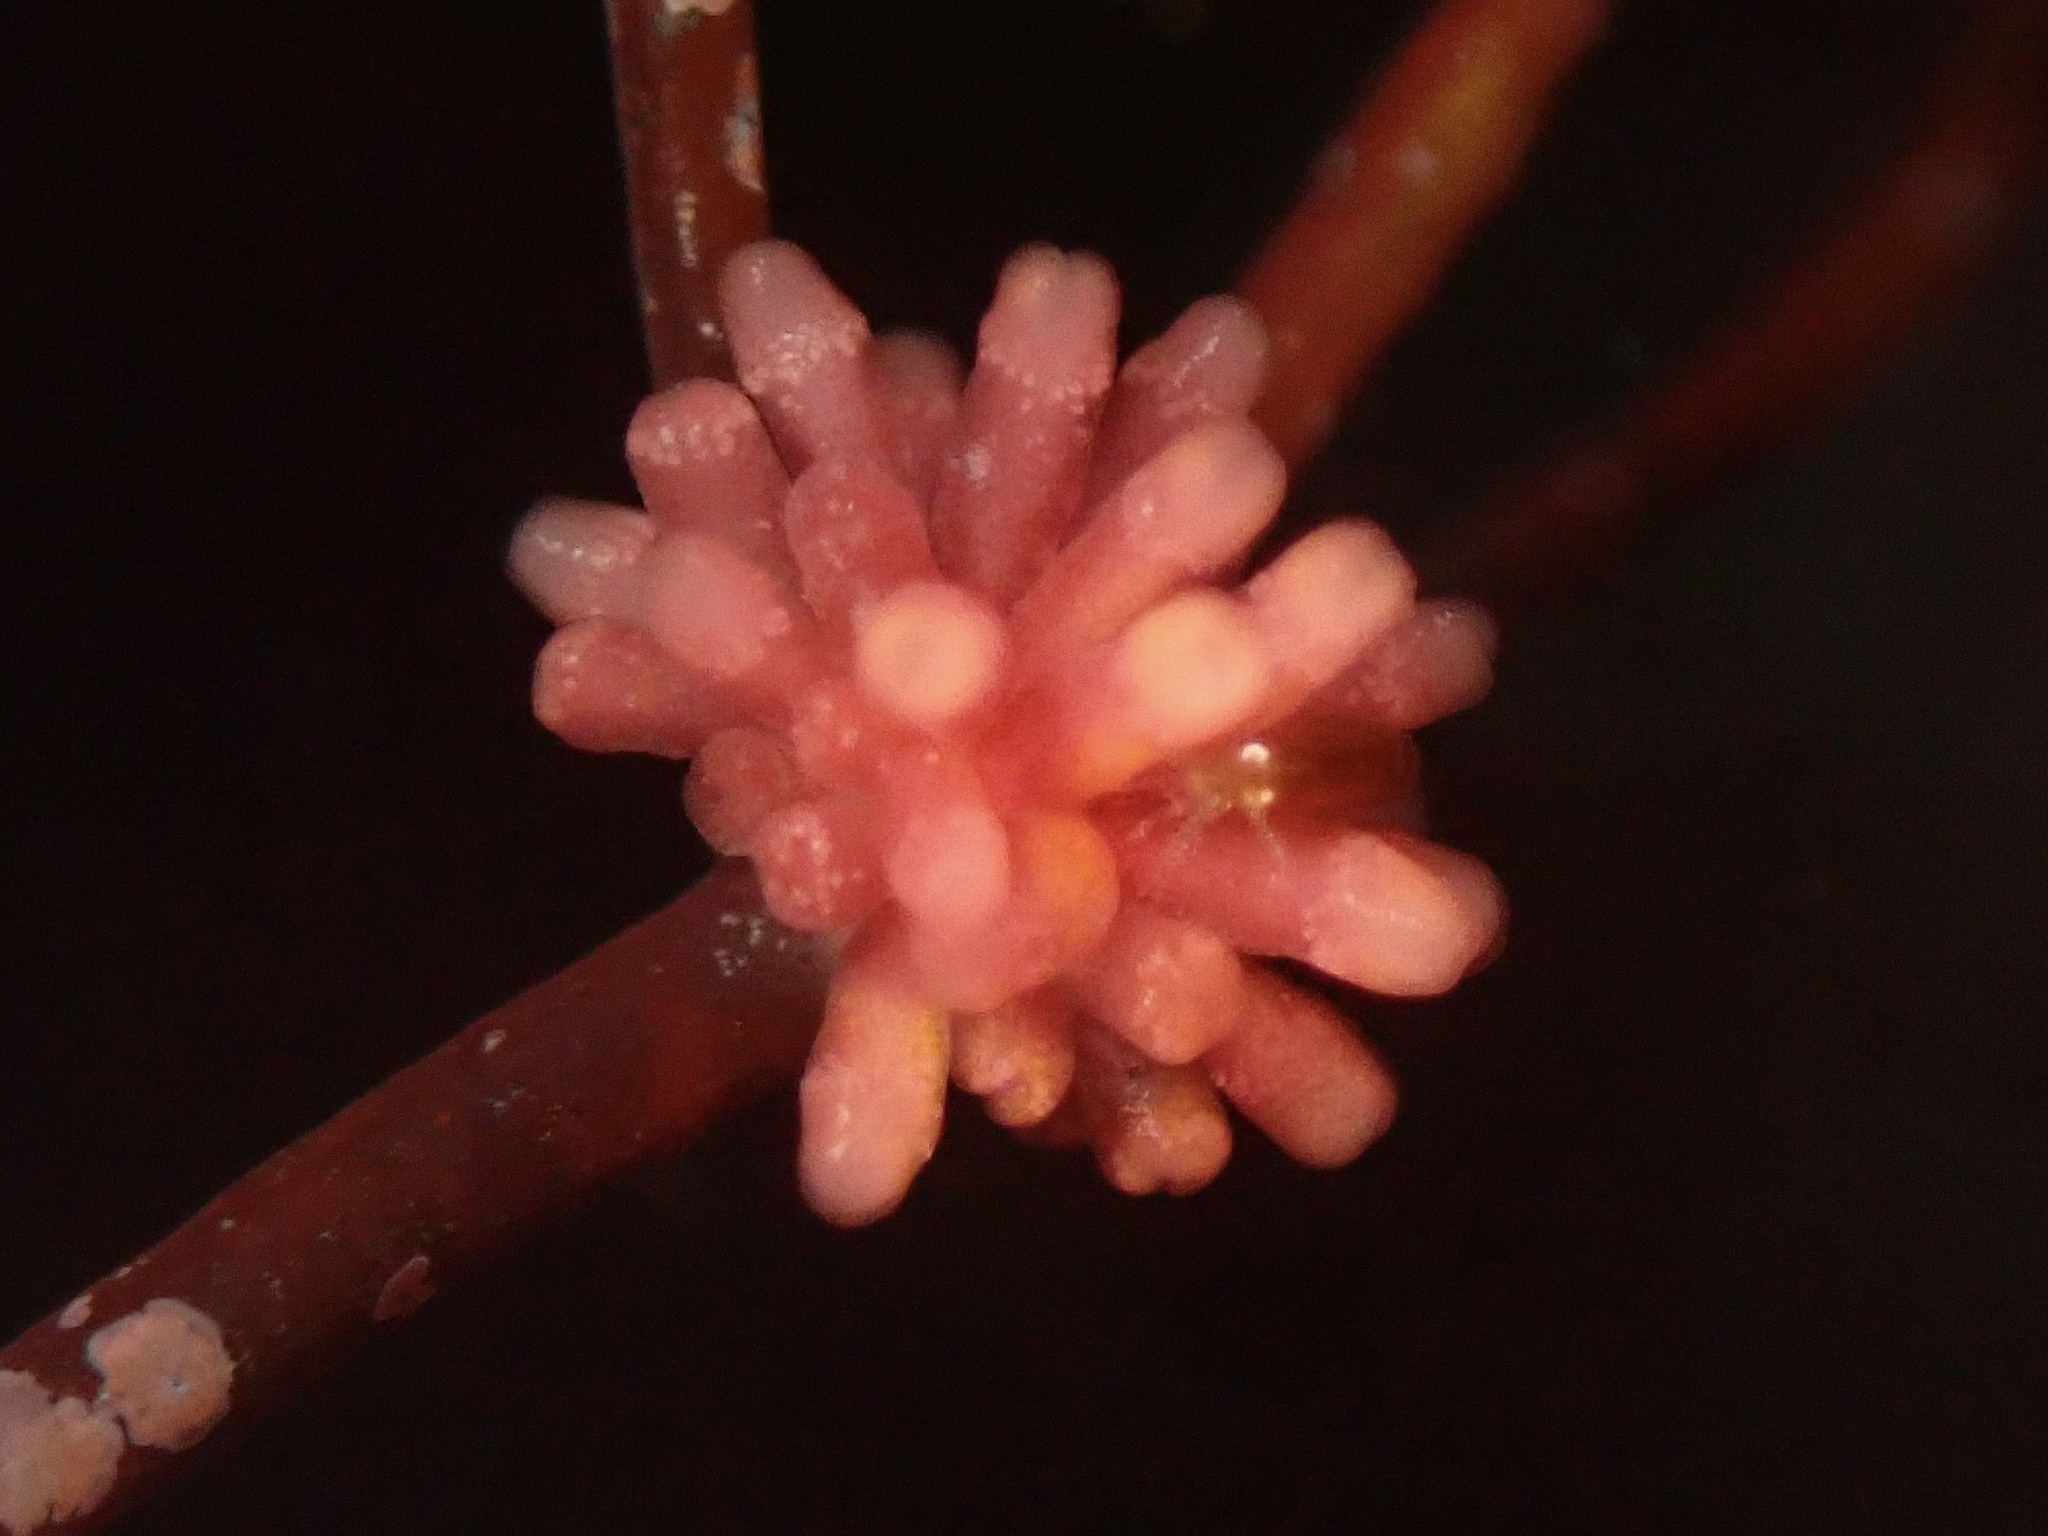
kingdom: Plantae
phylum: Rhodophyta
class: Florideophyceae
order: Ceramiales
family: Rhodomelaceae
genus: Janczewskia
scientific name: Janczewskia lappacea
